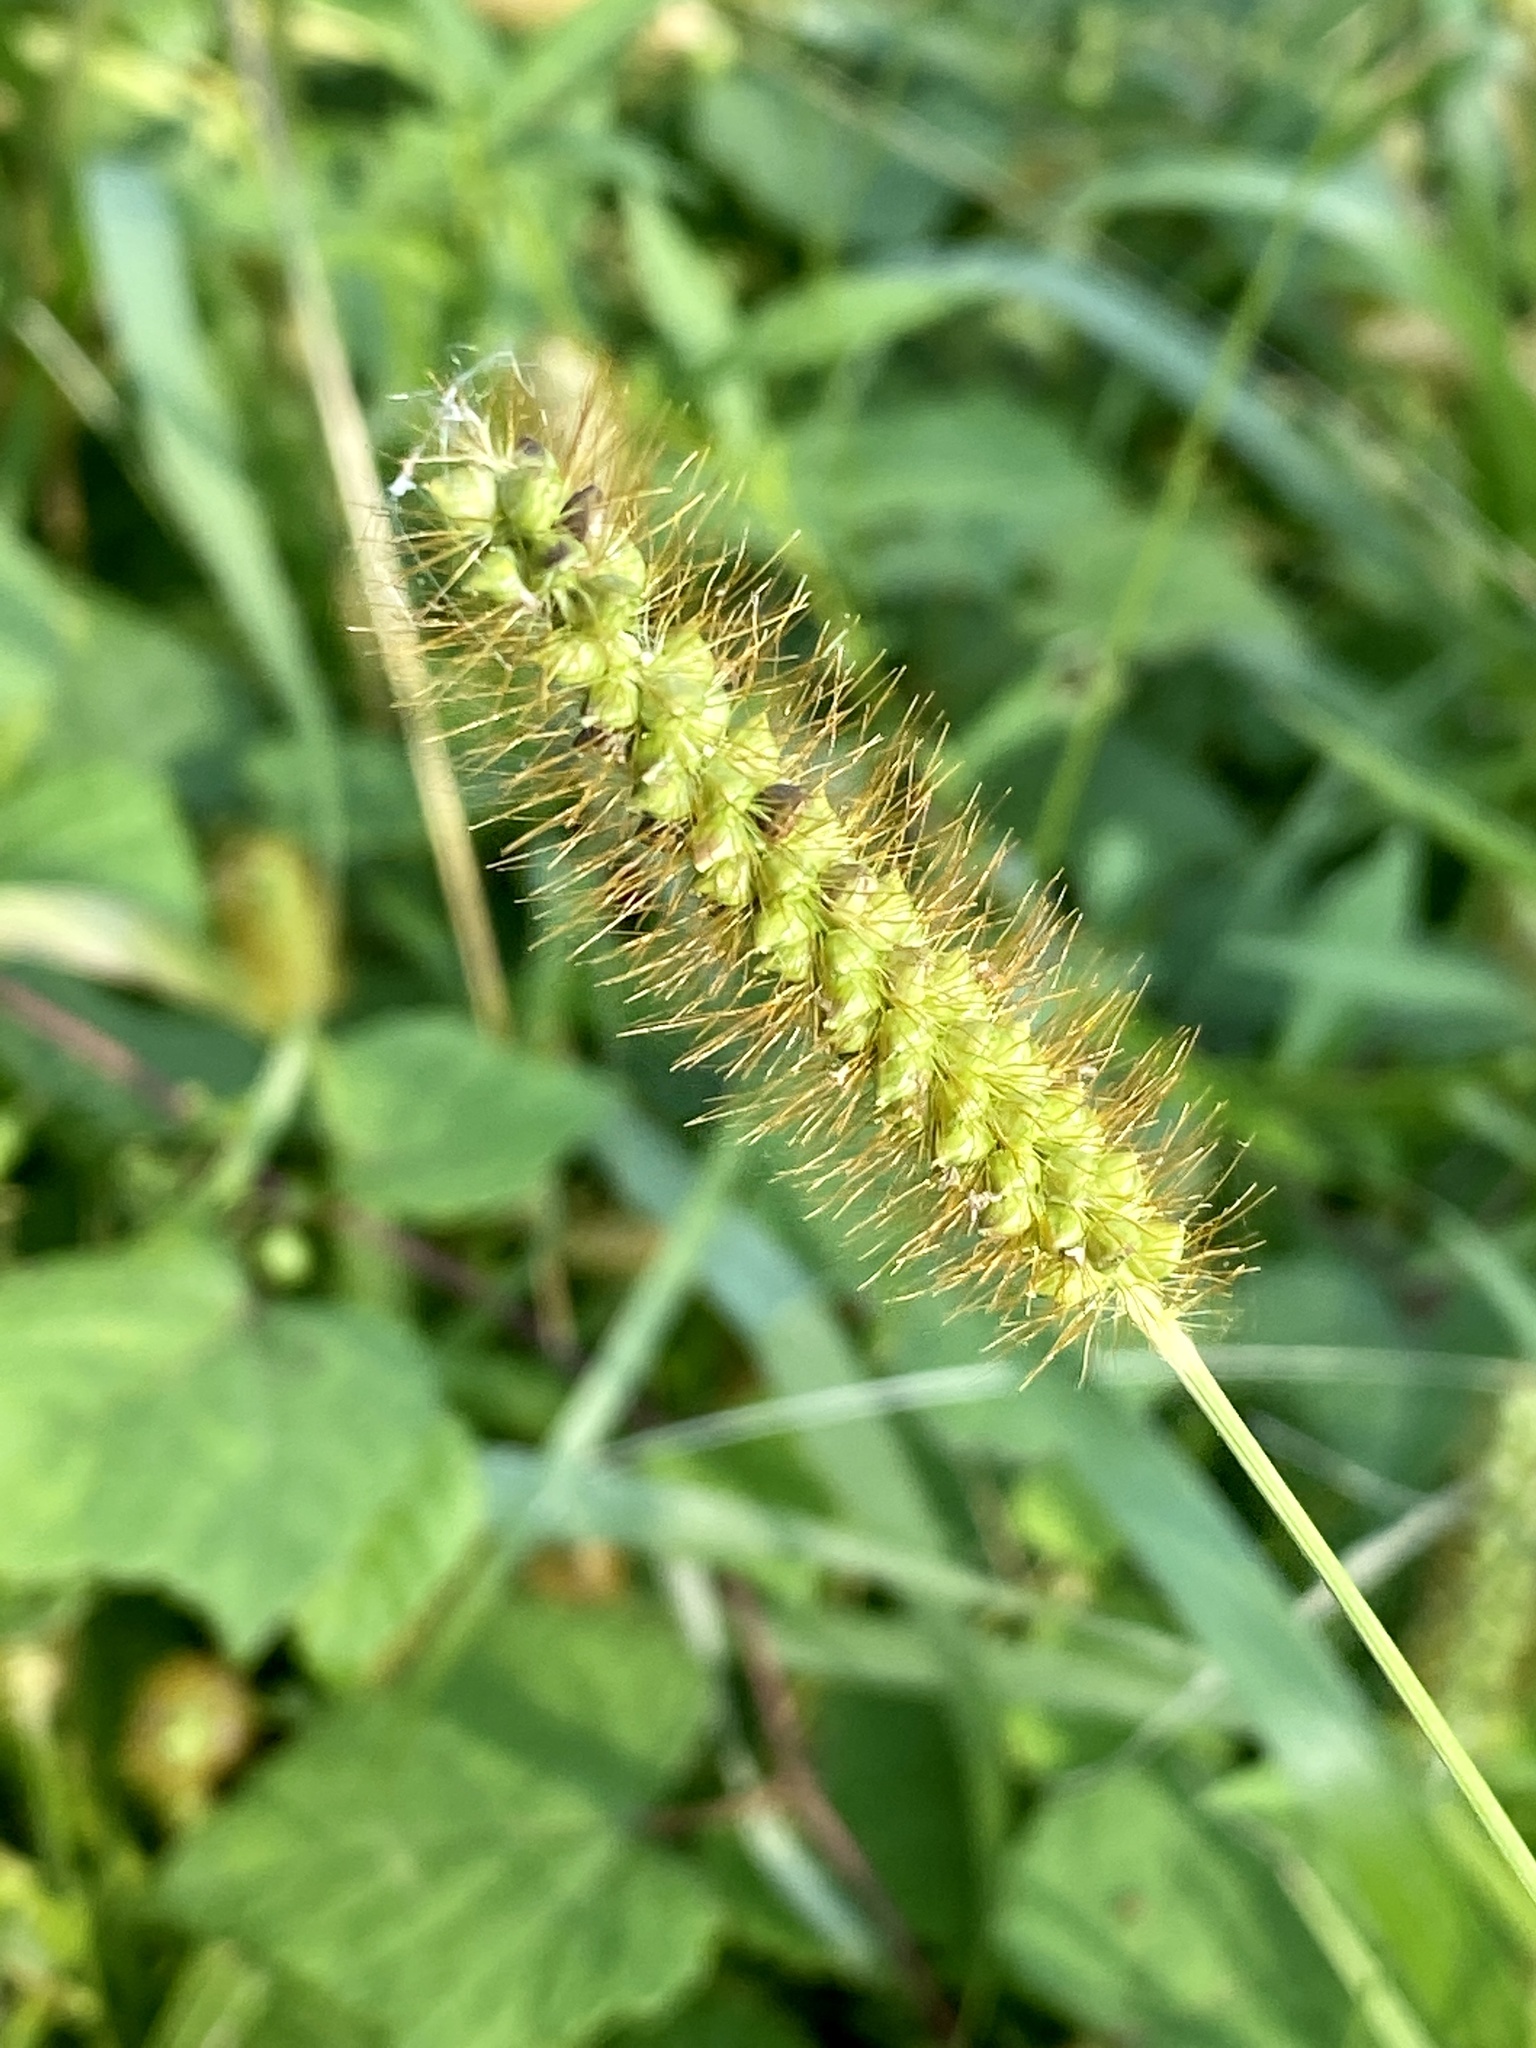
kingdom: Plantae
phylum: Tracheophyta
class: Liliopsida
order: Poales
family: Poaceae
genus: Setaria
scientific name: Setaria pumila
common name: Yellow bristle-grass
